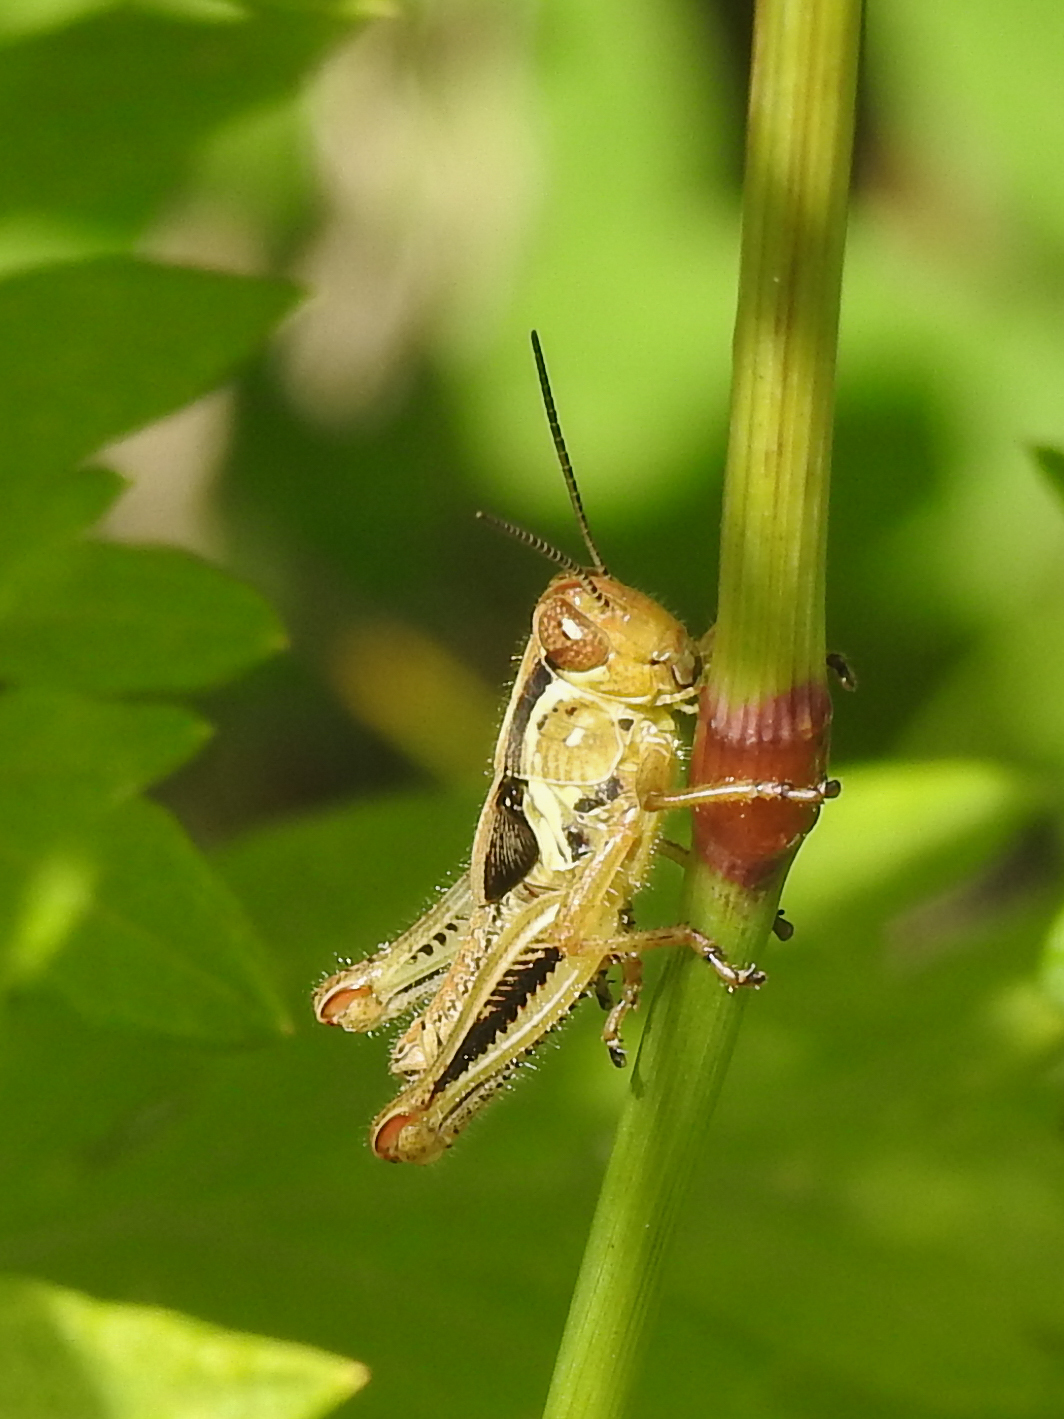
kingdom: Animalia
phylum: Arthropoda
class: Insecta
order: Orthoptera
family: Acrididae
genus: Melanoplus
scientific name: Melanoplus femurrubrum
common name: Red-legged grasshopper
